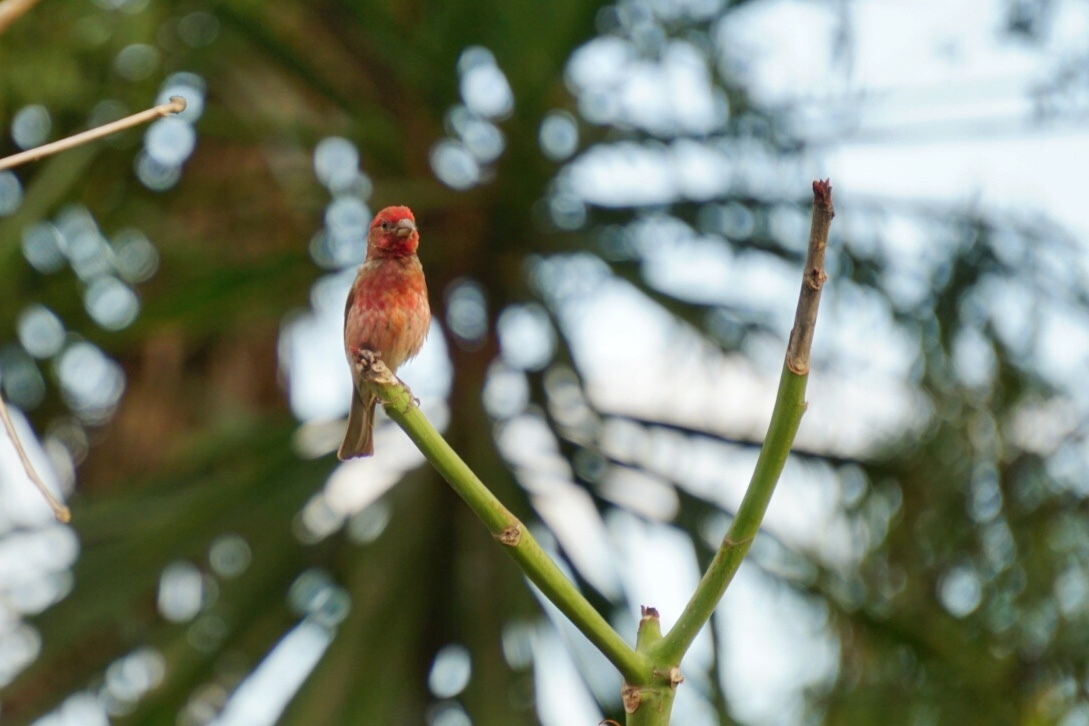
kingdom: Animalia
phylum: Chordata
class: Aves
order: Passeriformes
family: Fringillidae
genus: Haemorhous
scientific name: Haemorhous mexicanus
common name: House finch
